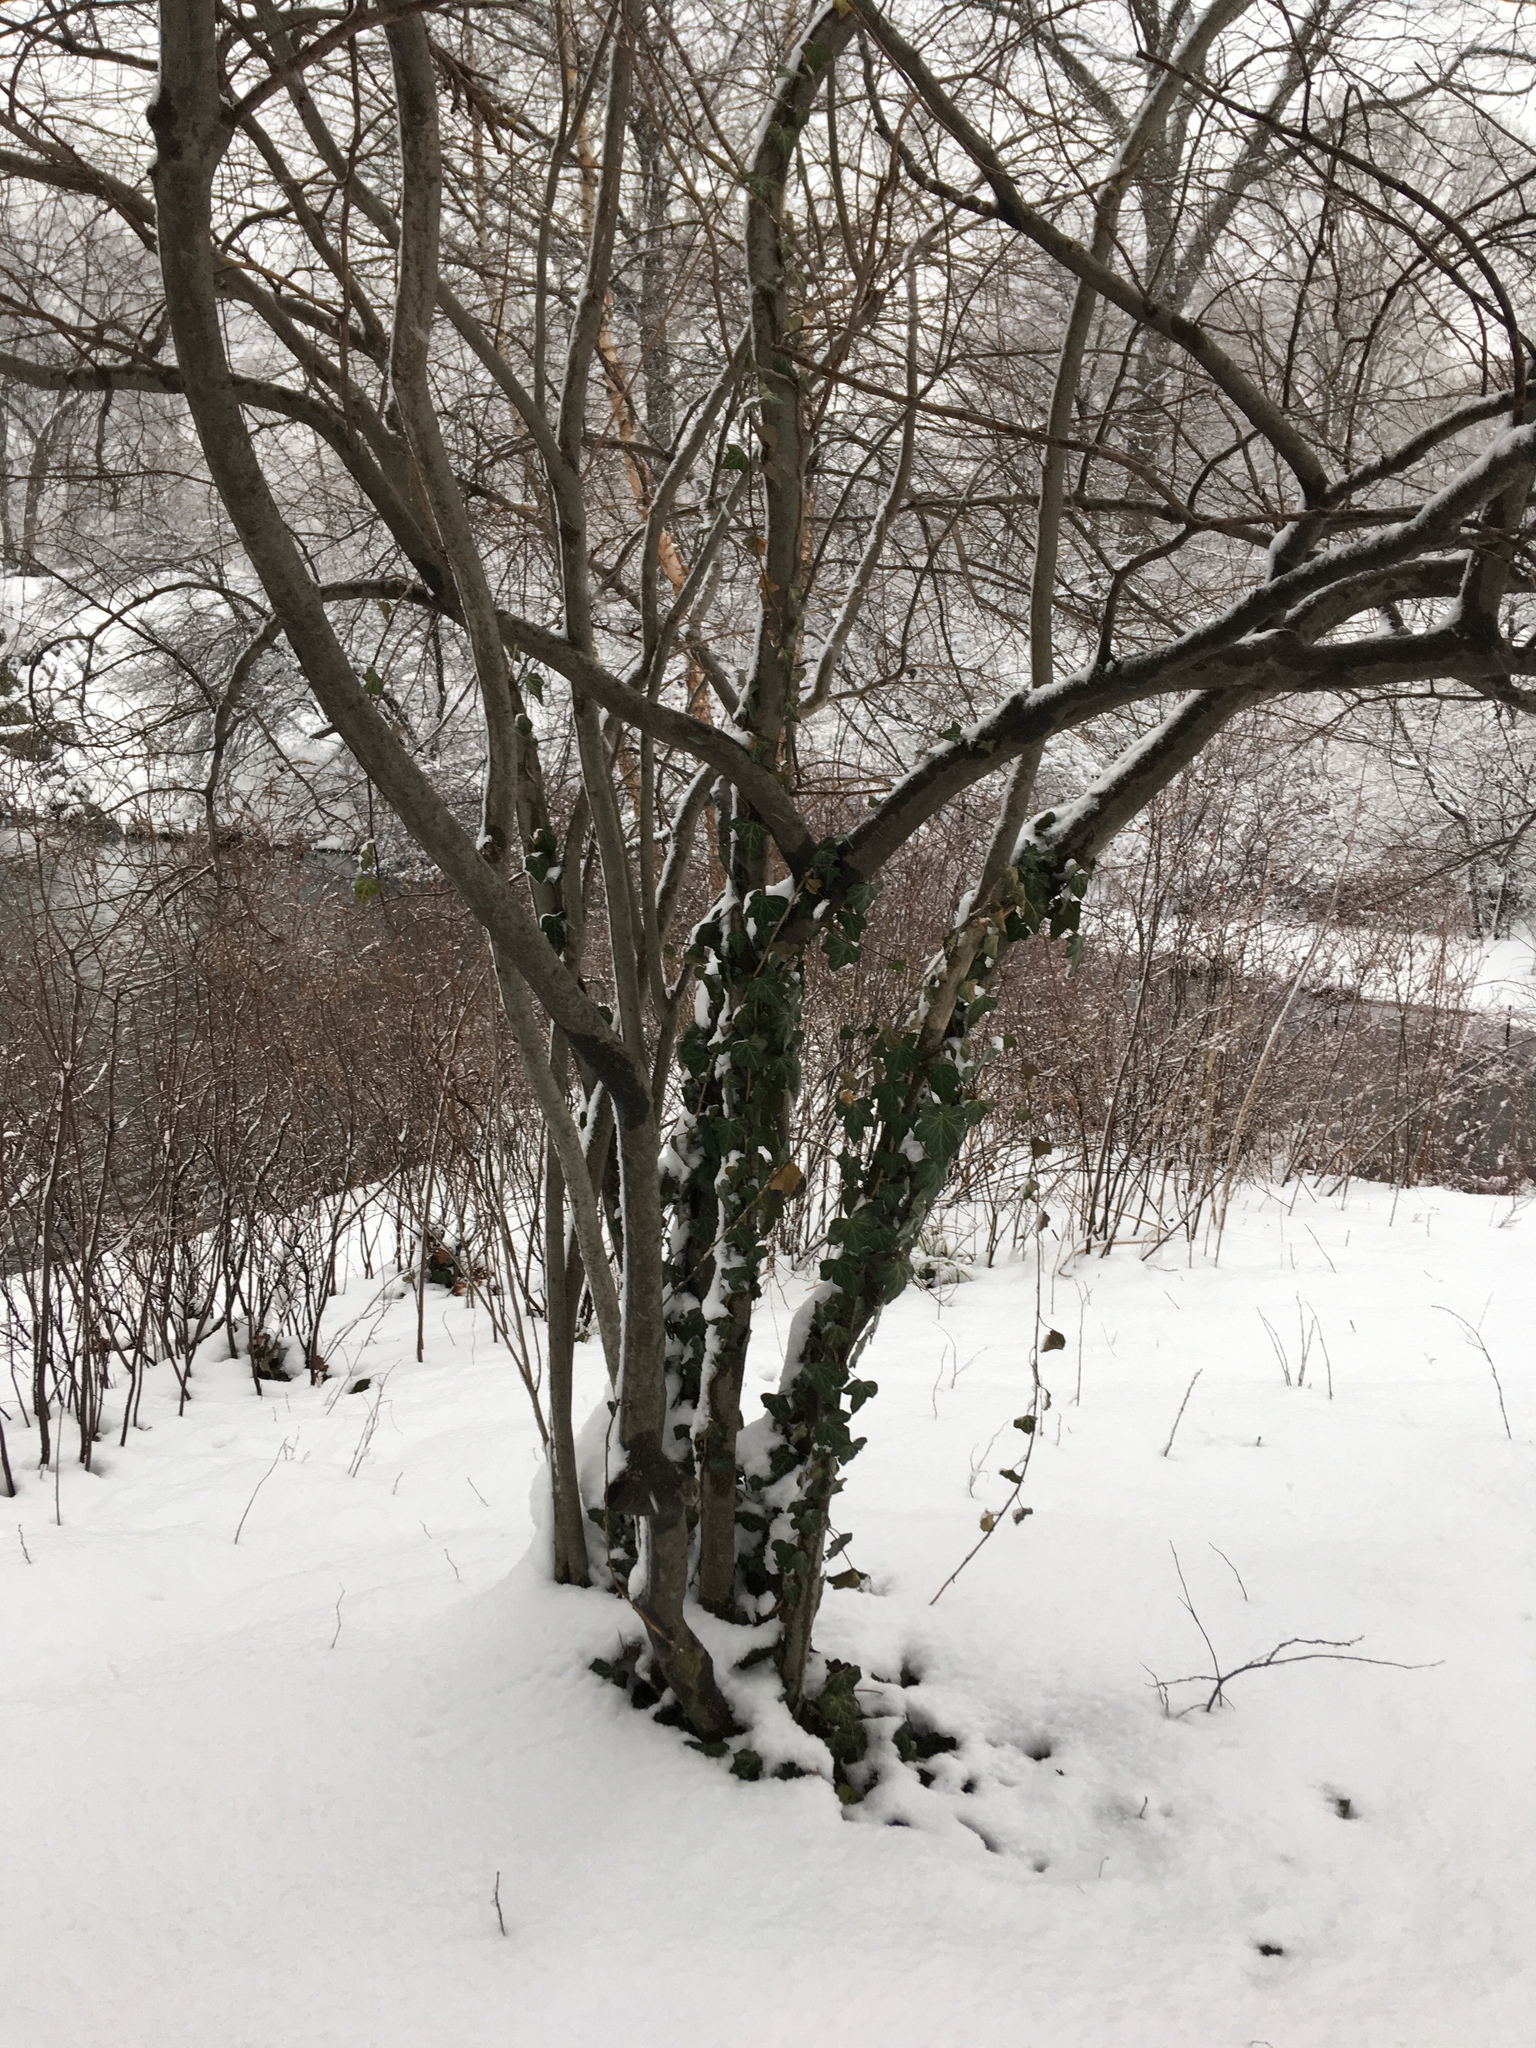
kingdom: Plantae
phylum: Tracheophyta
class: Magnoliopsida
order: Apiales
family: Araliaceae
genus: Hedera
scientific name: Hedera helix
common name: Ivy
